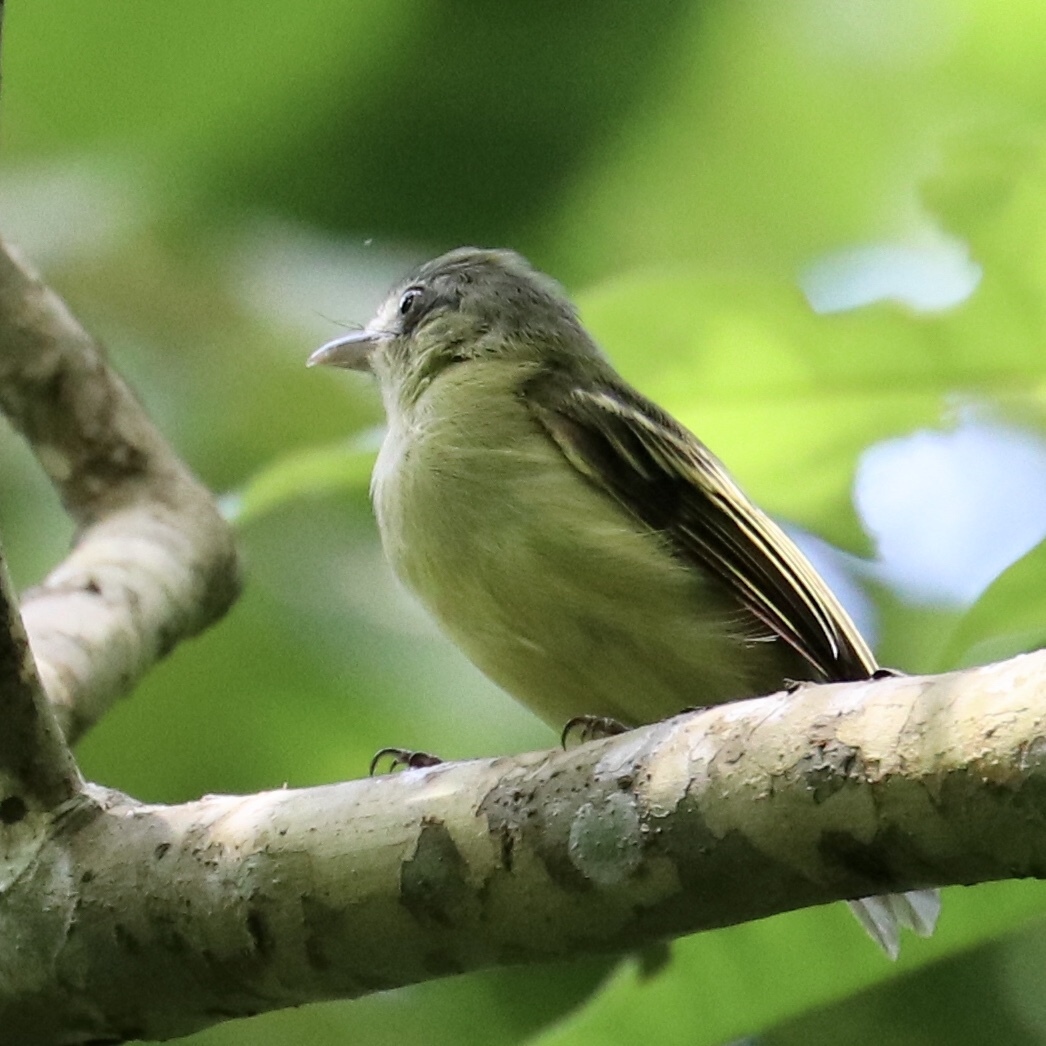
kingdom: Animalia
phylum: Chordata
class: Aves
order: Passeriformes
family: Tyrannidae
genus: Tolmomyias
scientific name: Tolmomyias sulphurescens
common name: Yellow-olive flycatcher
